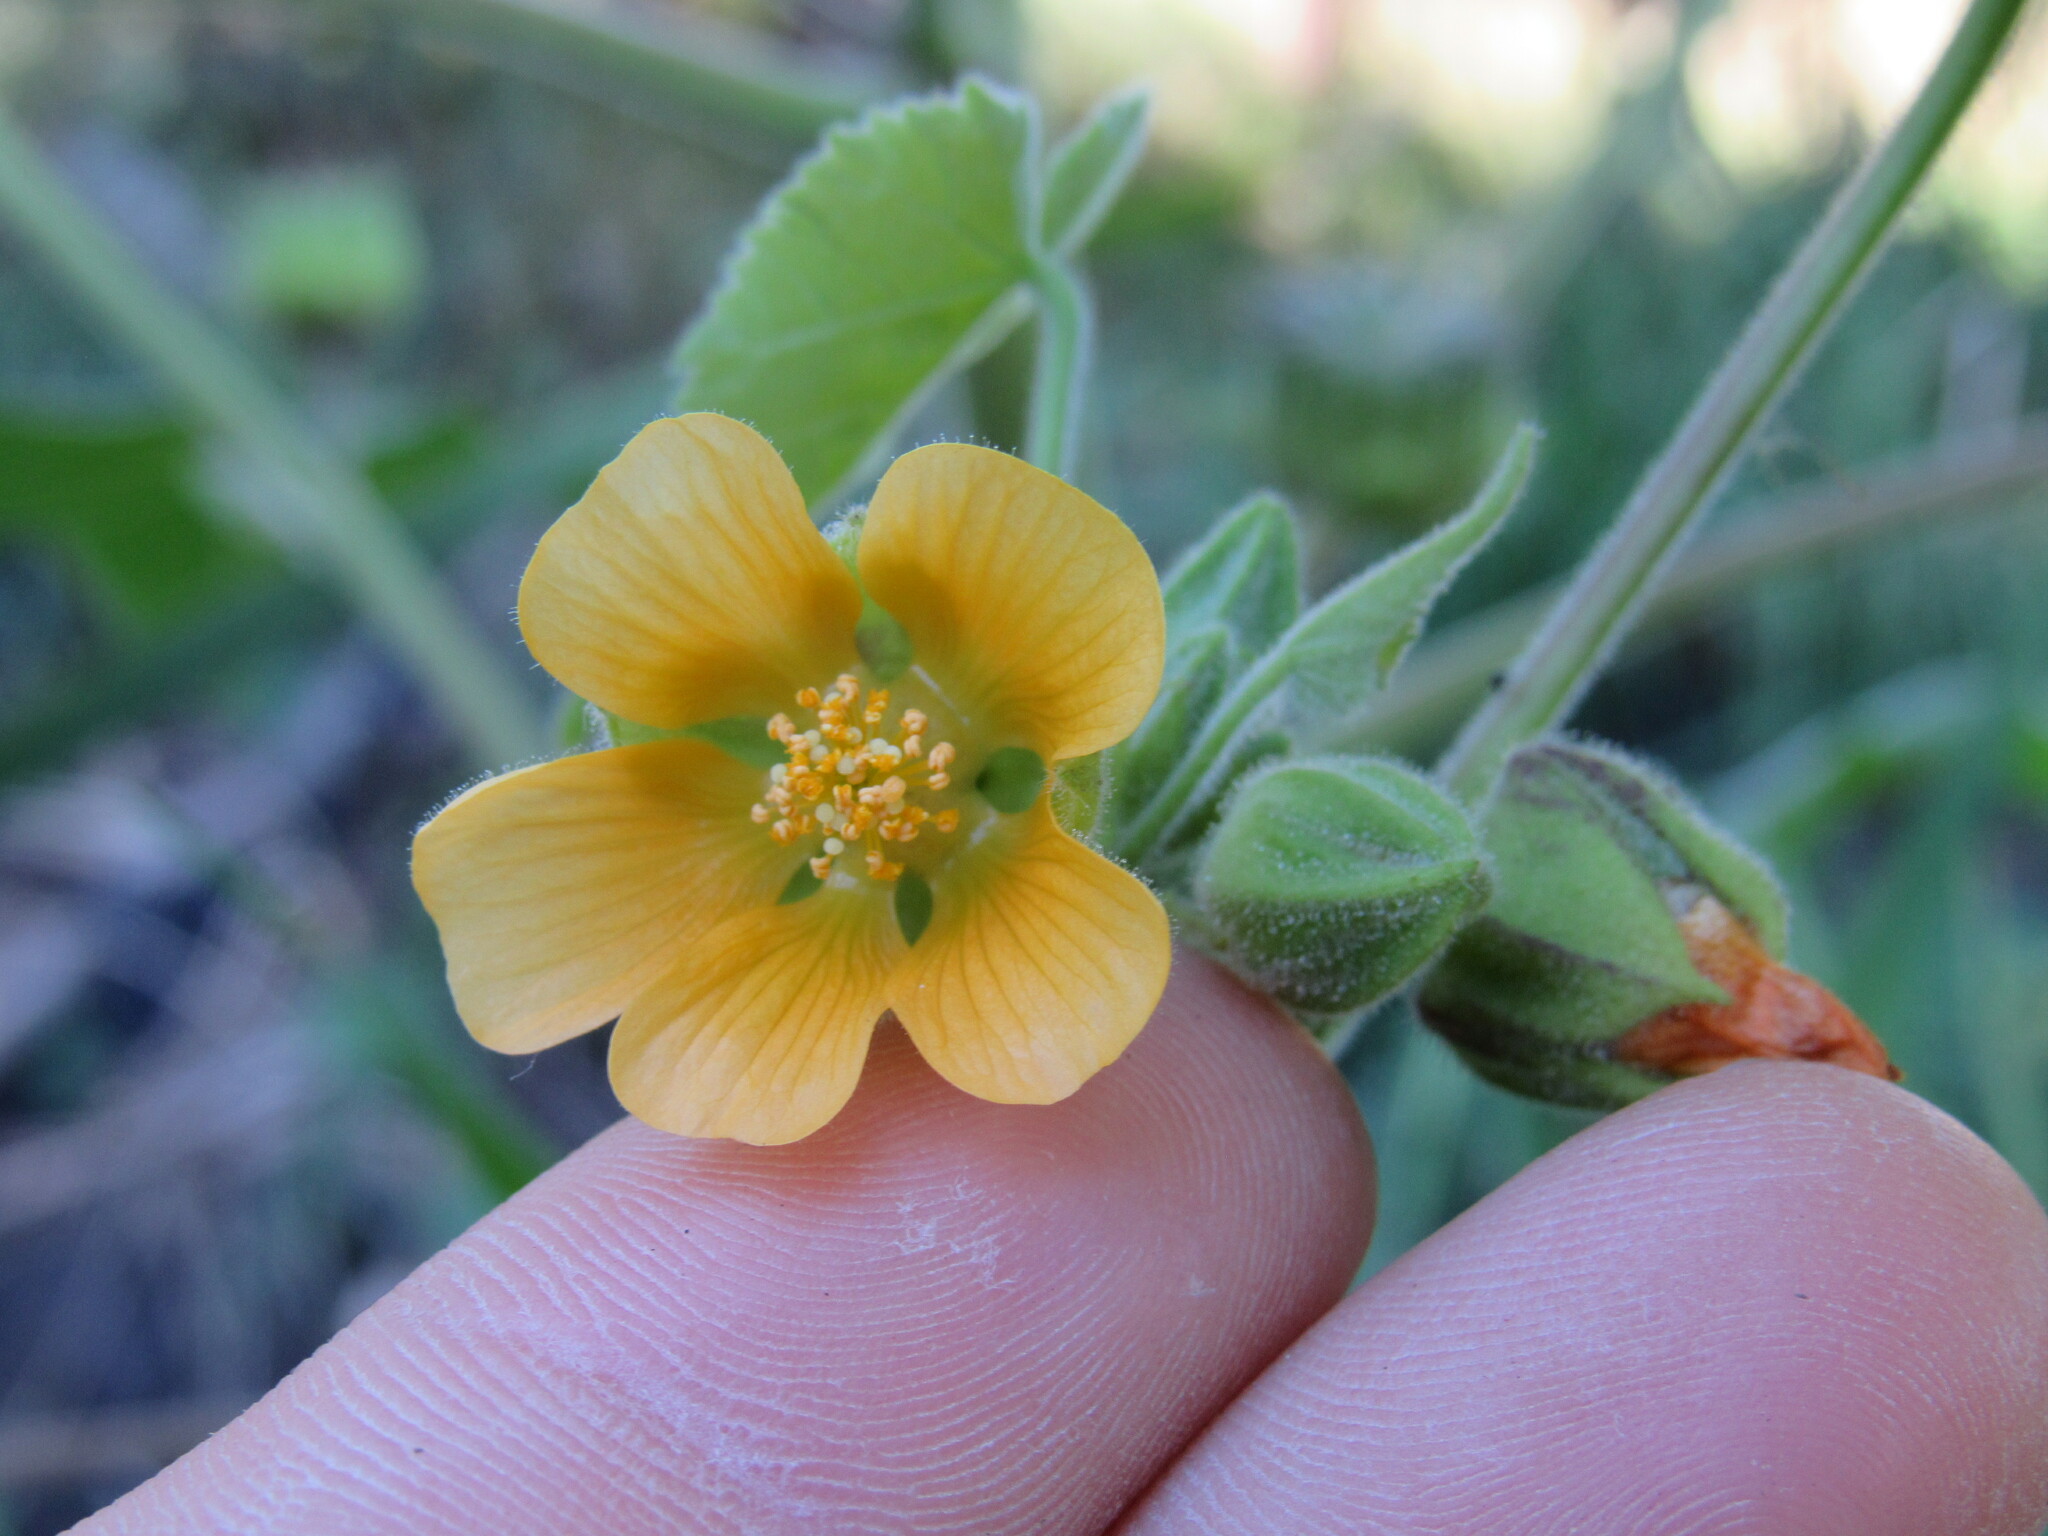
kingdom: Plantae
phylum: Tracheophyta
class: Magnoliopsida
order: Malvales
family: Malvaceae
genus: Abutilon
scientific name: Abutilon theophrasti
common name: Velvetleaf
